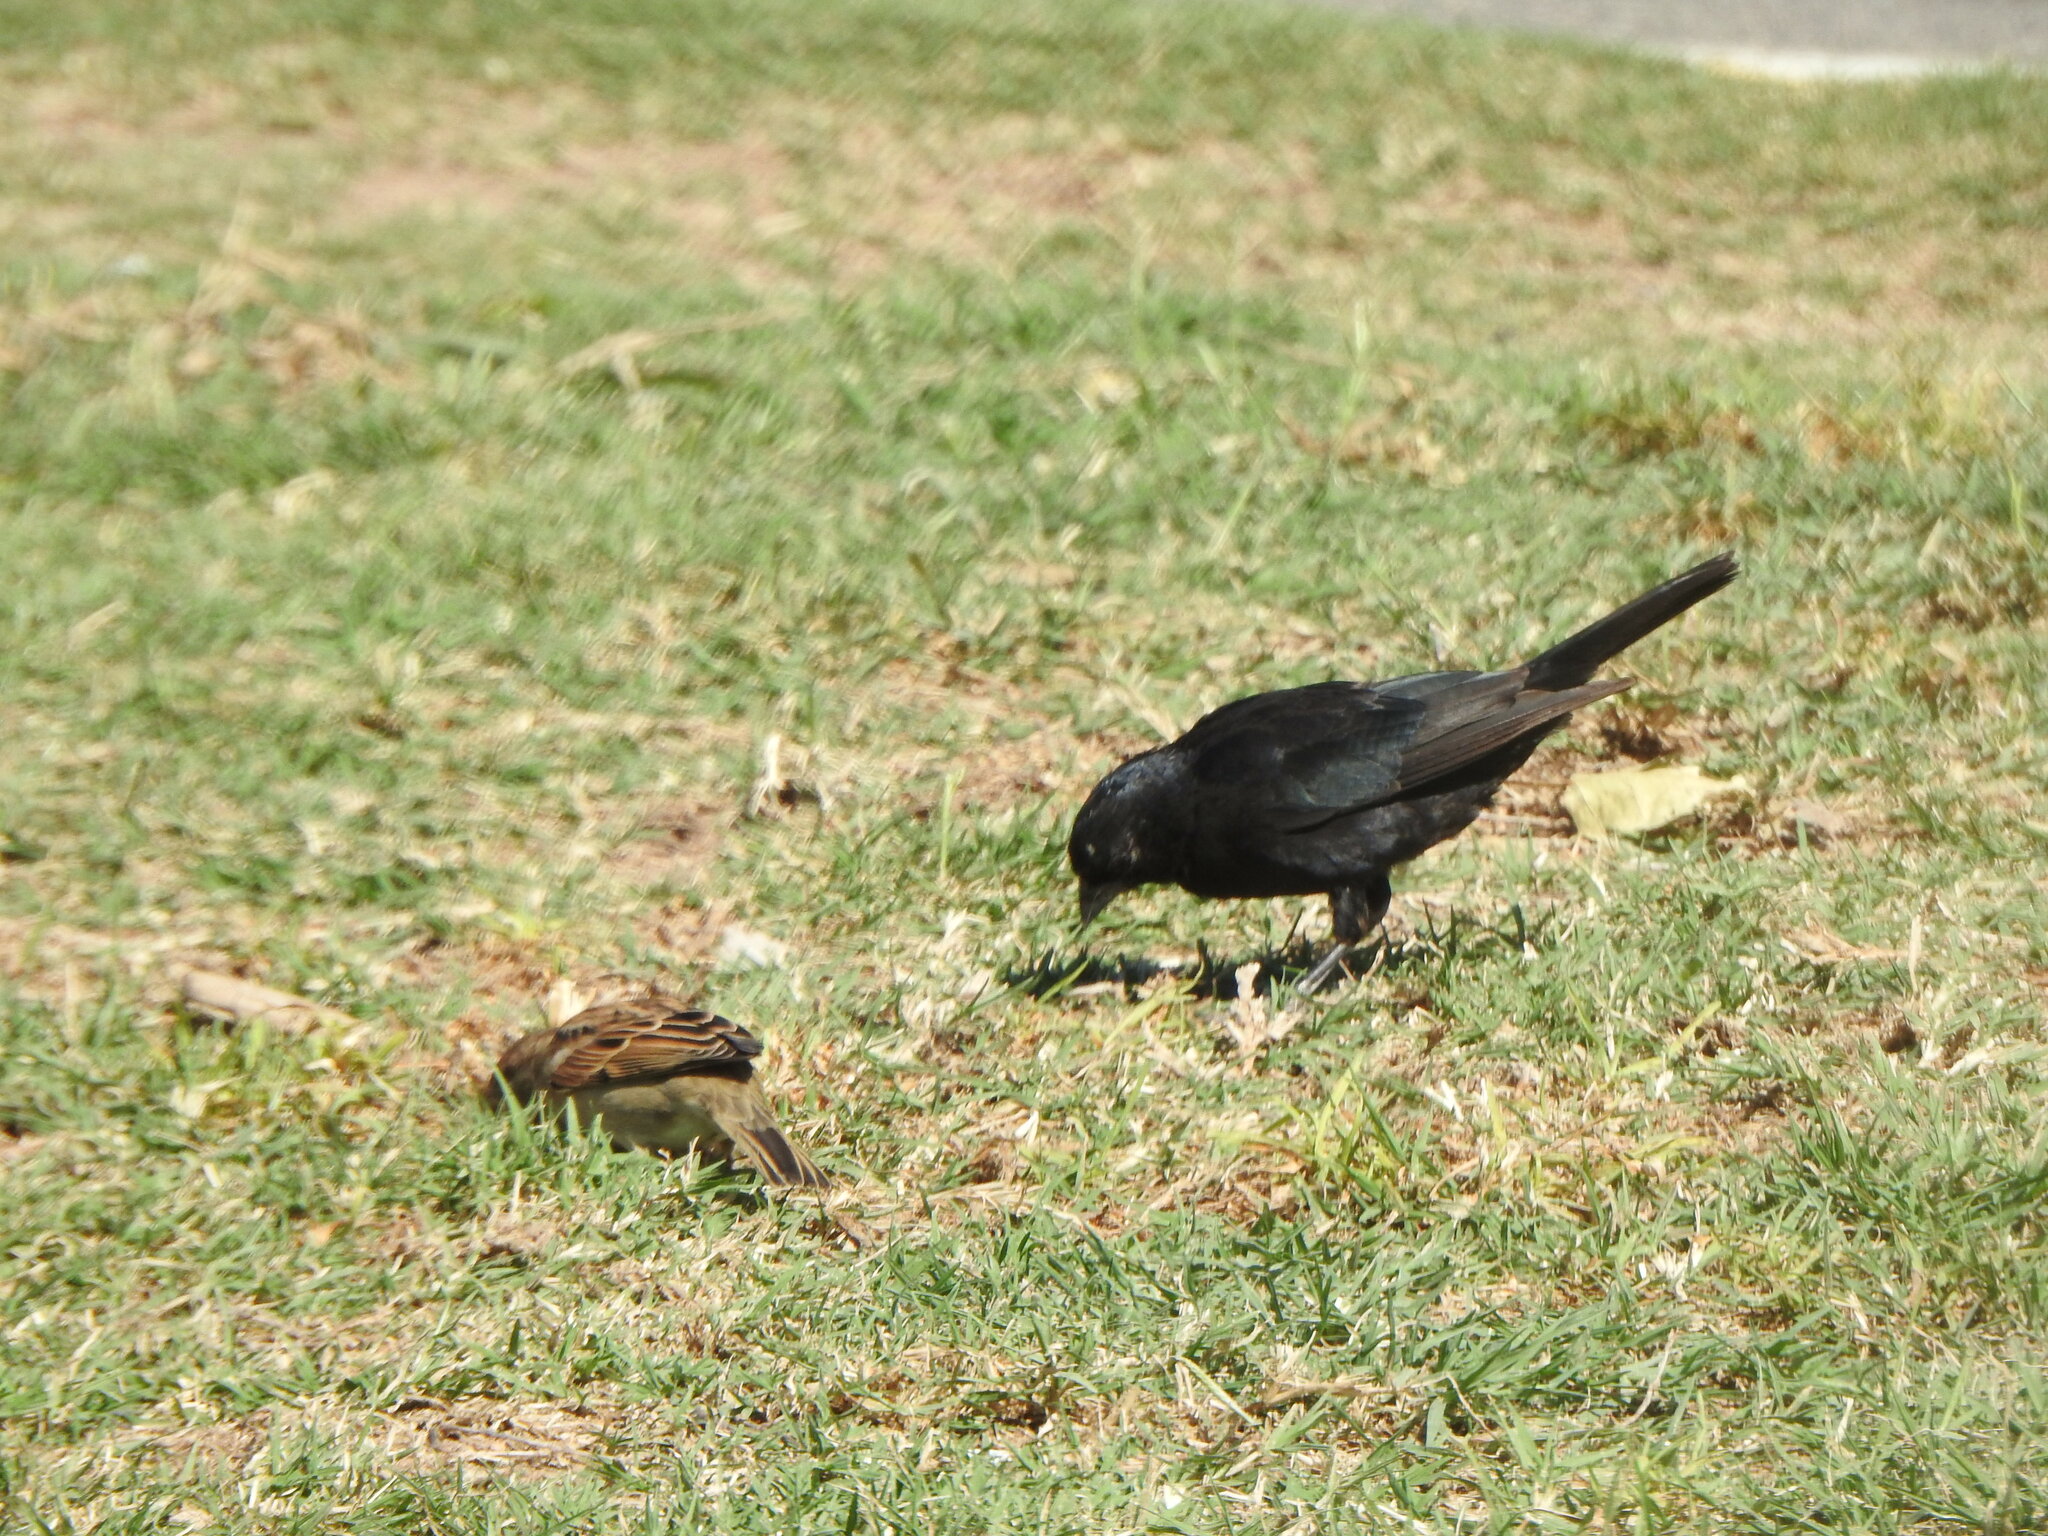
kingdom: Animalia
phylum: Chordata
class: Aves
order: Passeriformes
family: Icteridae
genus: Molothrus
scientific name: Molothrus rufoaxillaris
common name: Screaming cowbird
